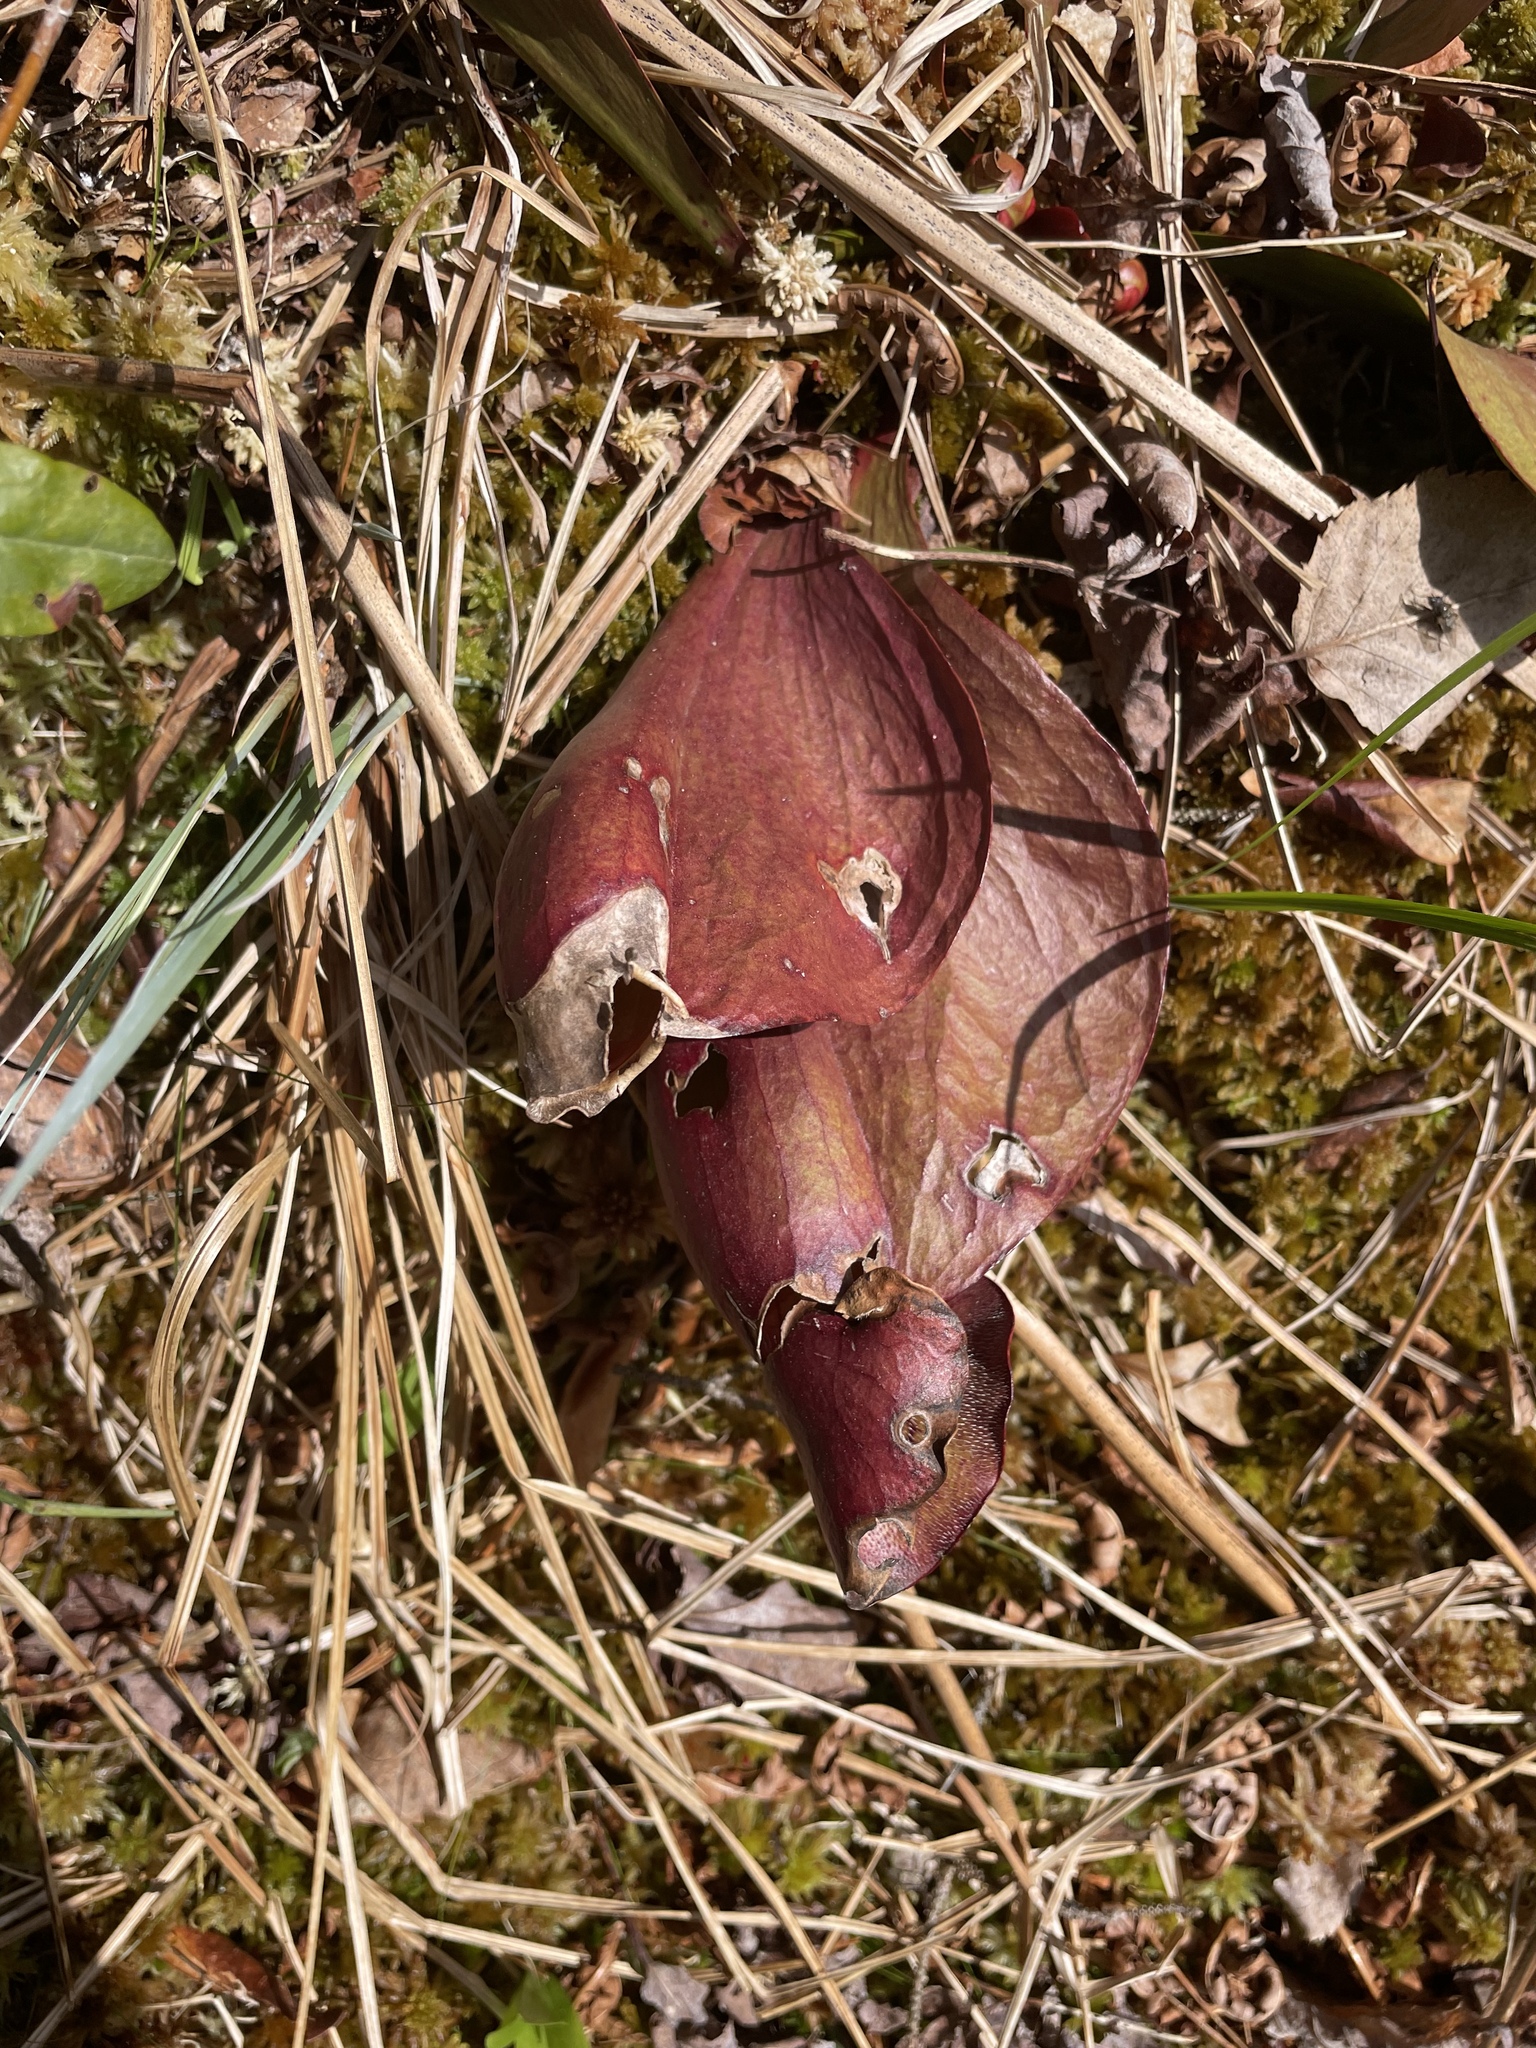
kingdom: Plantae
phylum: Tracheophyta
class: Magnoliopsida
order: Ericales
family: Sarraceniaceae
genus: Sarracenia
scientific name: Sarracenia purpurea
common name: Pitcherplant
